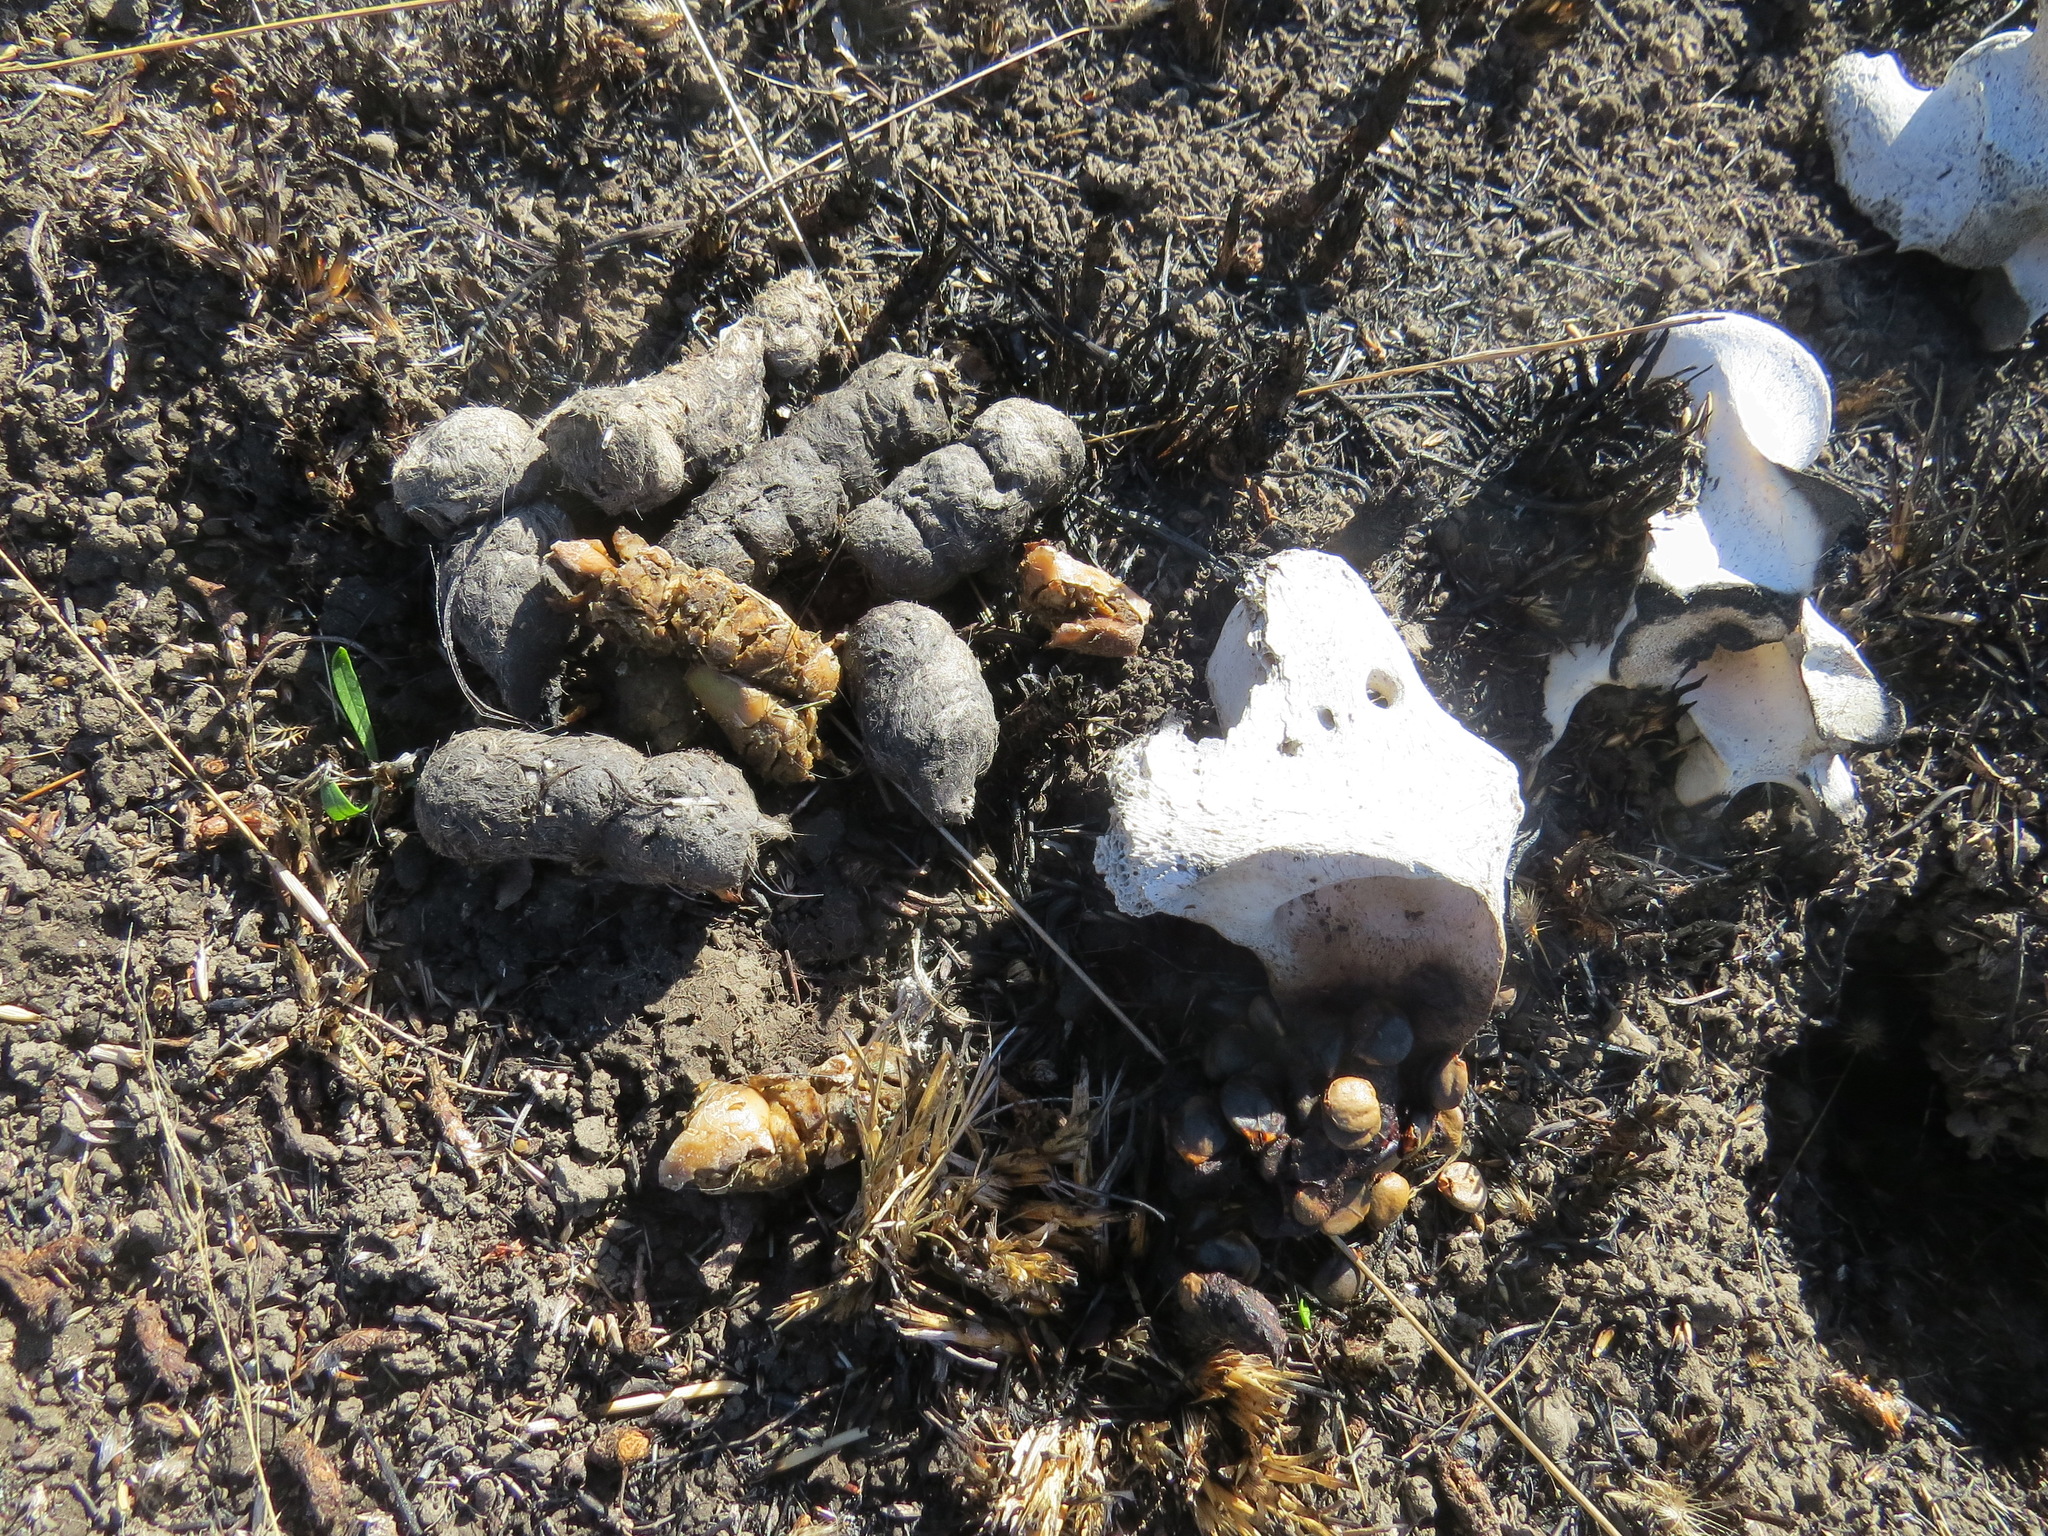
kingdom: Animalia
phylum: Chordata
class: Mammalia
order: Carnivora
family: Felidae
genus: Lynx
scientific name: Lynx rufus
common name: Bobcat
